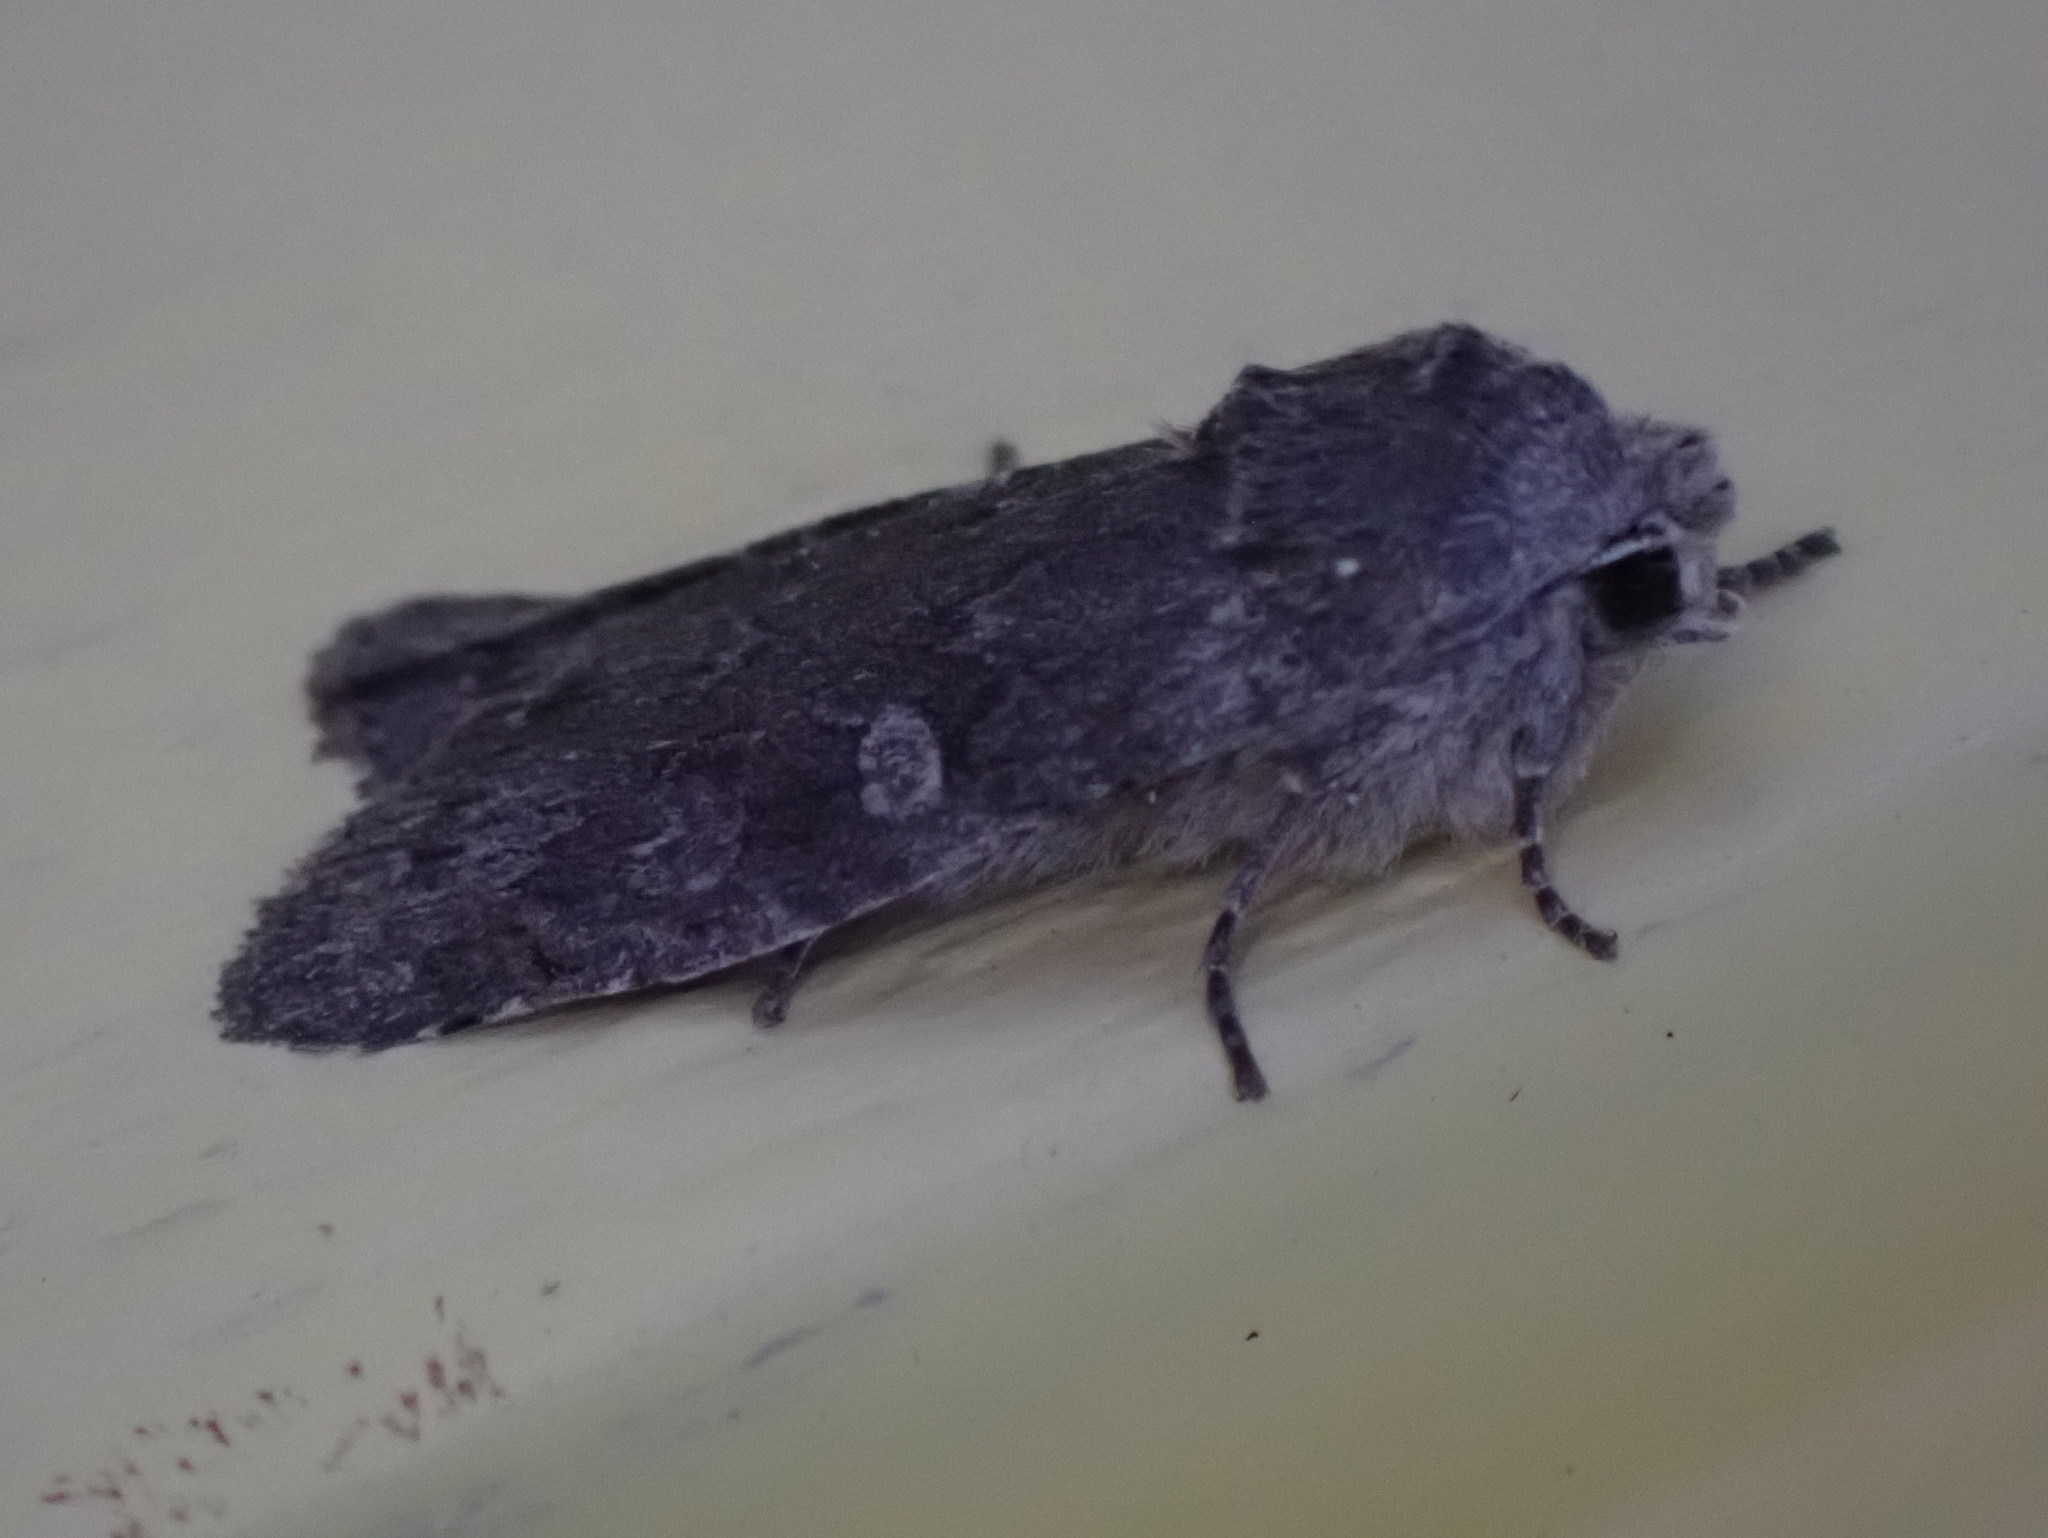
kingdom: Animalia
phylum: Arthropoda
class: Insecta
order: Lepidoptera
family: Noctuidae
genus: Lithophane
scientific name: Lithophane unimoda
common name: Dowdy pinion
